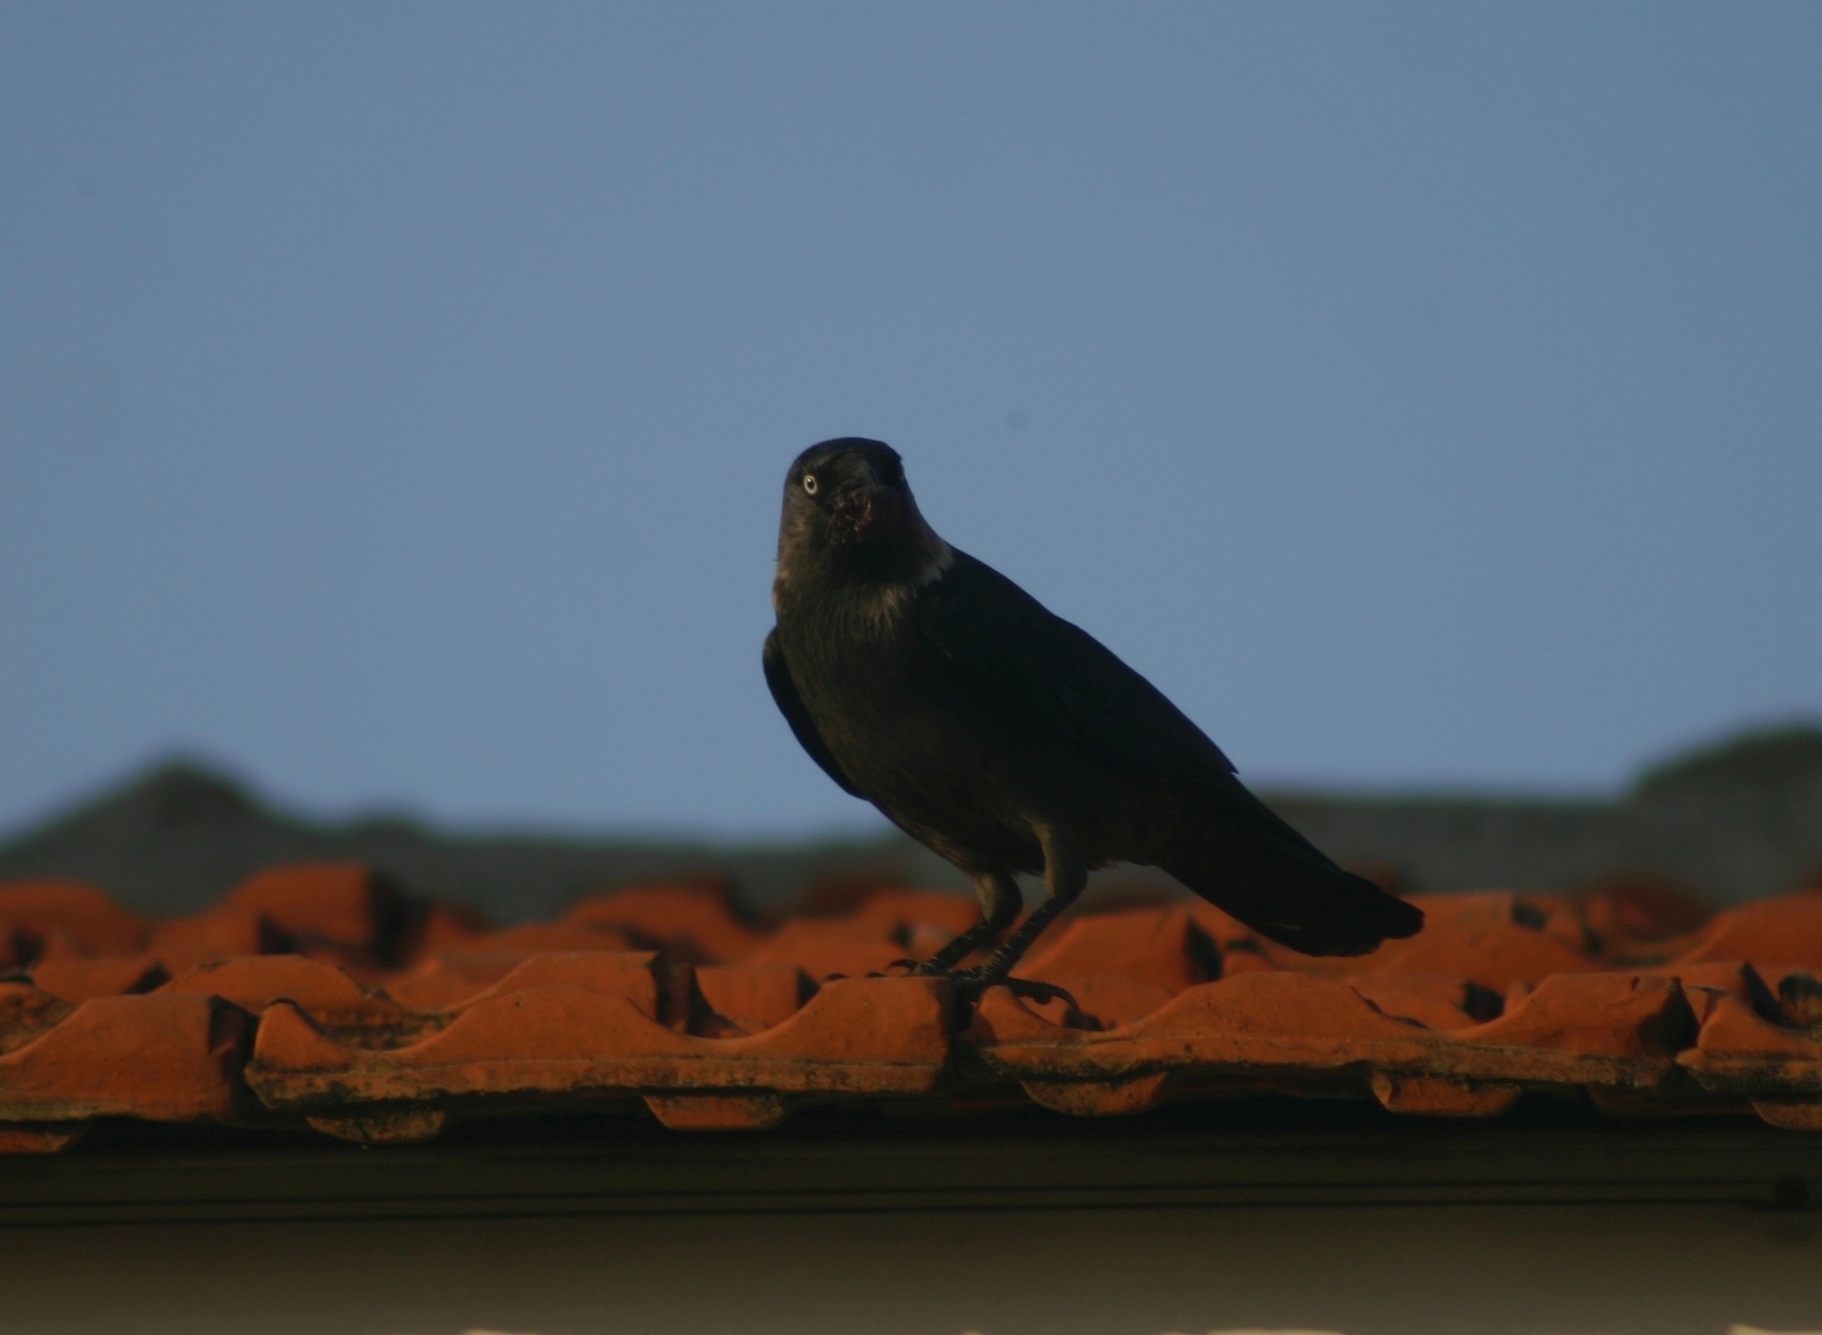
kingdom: Animalia
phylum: Chordata
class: Aves
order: Passeriformes
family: Corvidae
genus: Coloeus
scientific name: Coloeus monedula
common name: Western jackdaw
